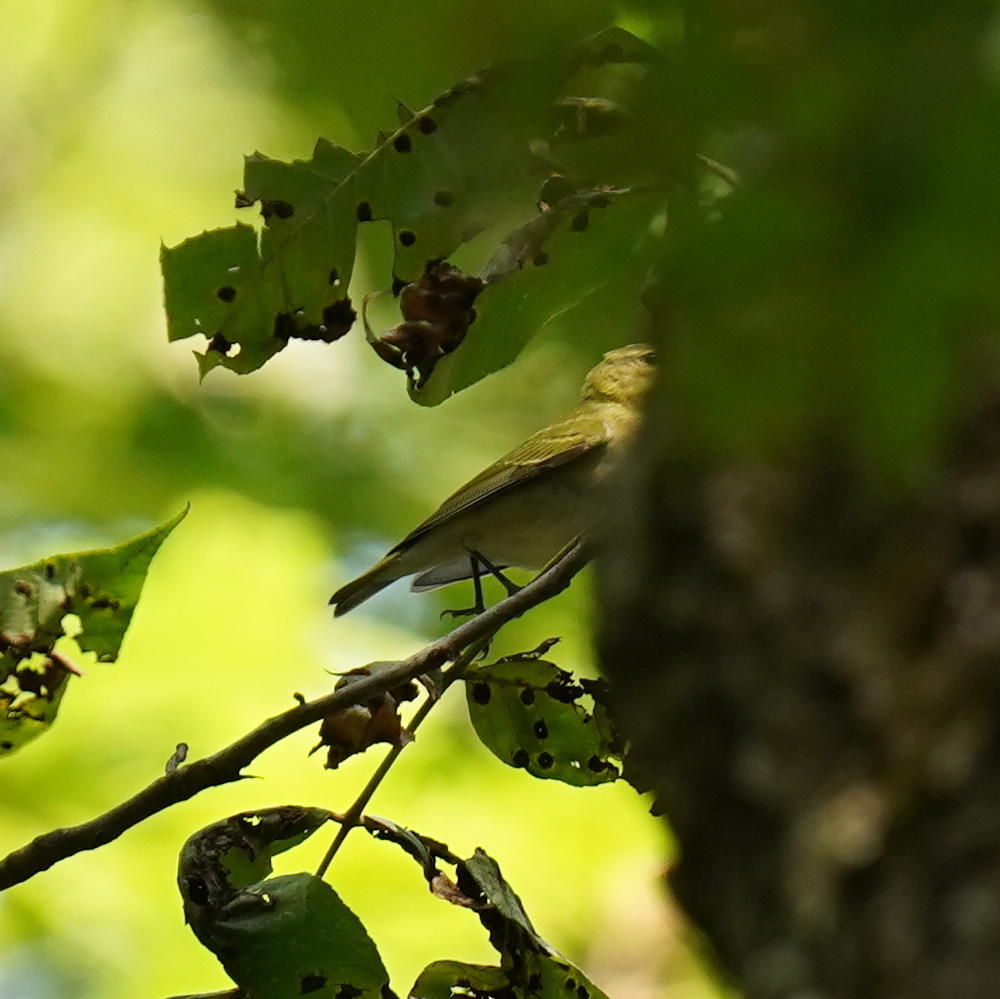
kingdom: Animalia
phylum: Chordata
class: Aves
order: Passeriformes
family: Vireonidae
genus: Vireo
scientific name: Vireo olivaceus
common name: Red-eyed vireo
